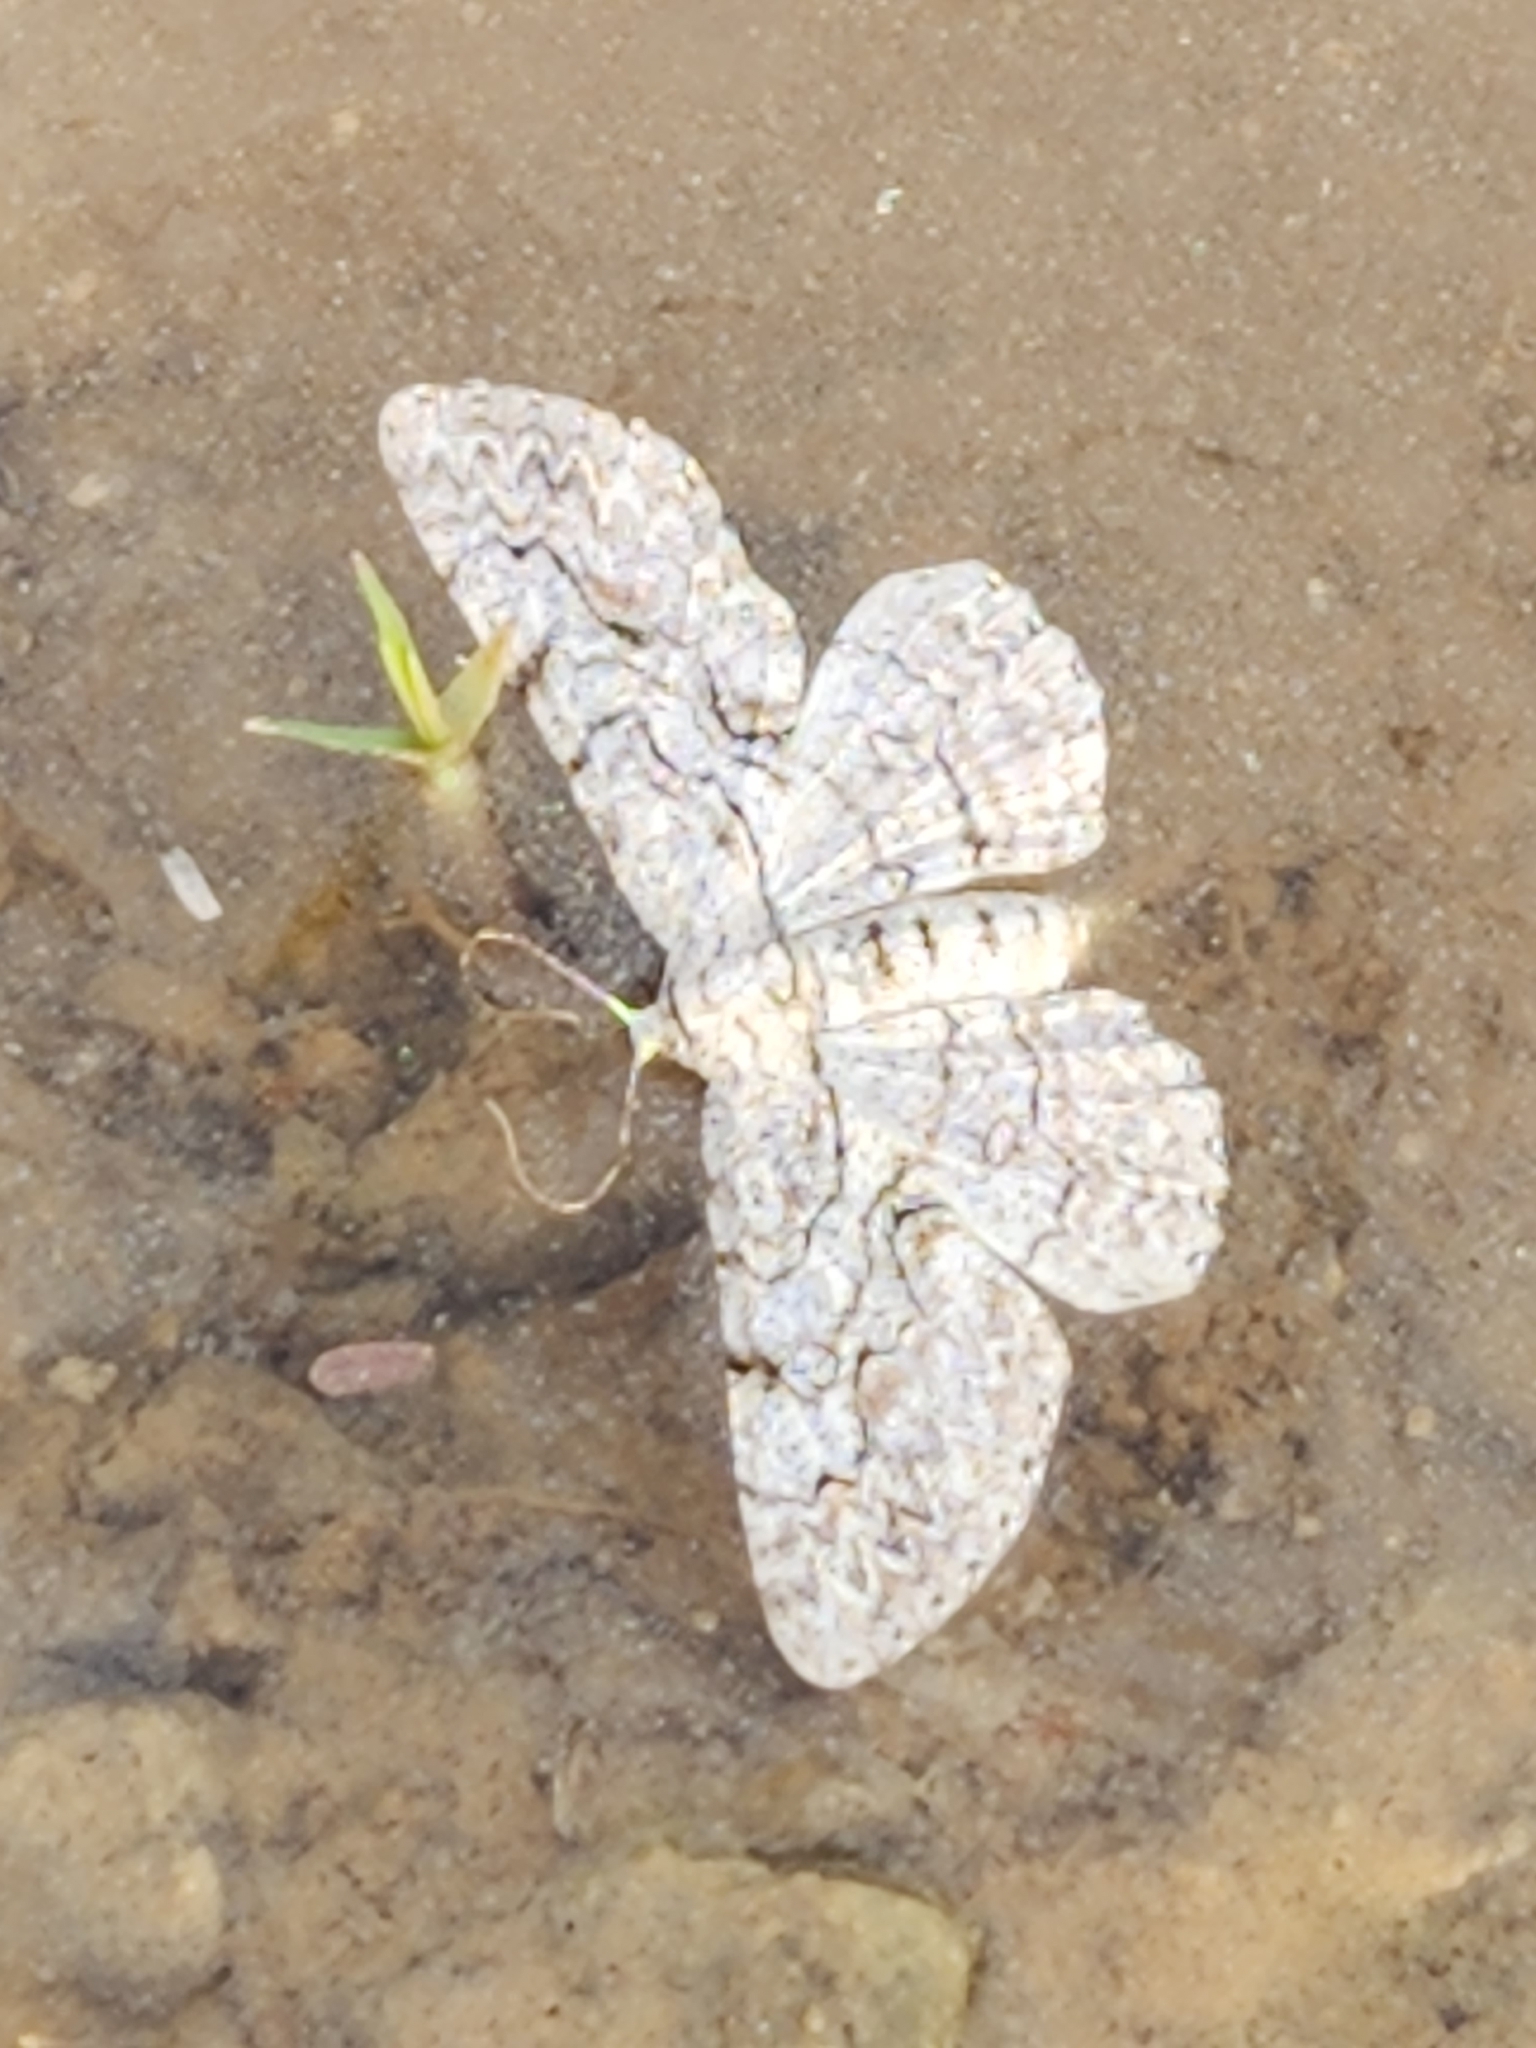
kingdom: Animalia
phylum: Arthropoda
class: Insecta
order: Lepidoptera
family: Geometridae
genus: Iridopsis
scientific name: Iridopsis defectaria
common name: Brown-shaded gray
